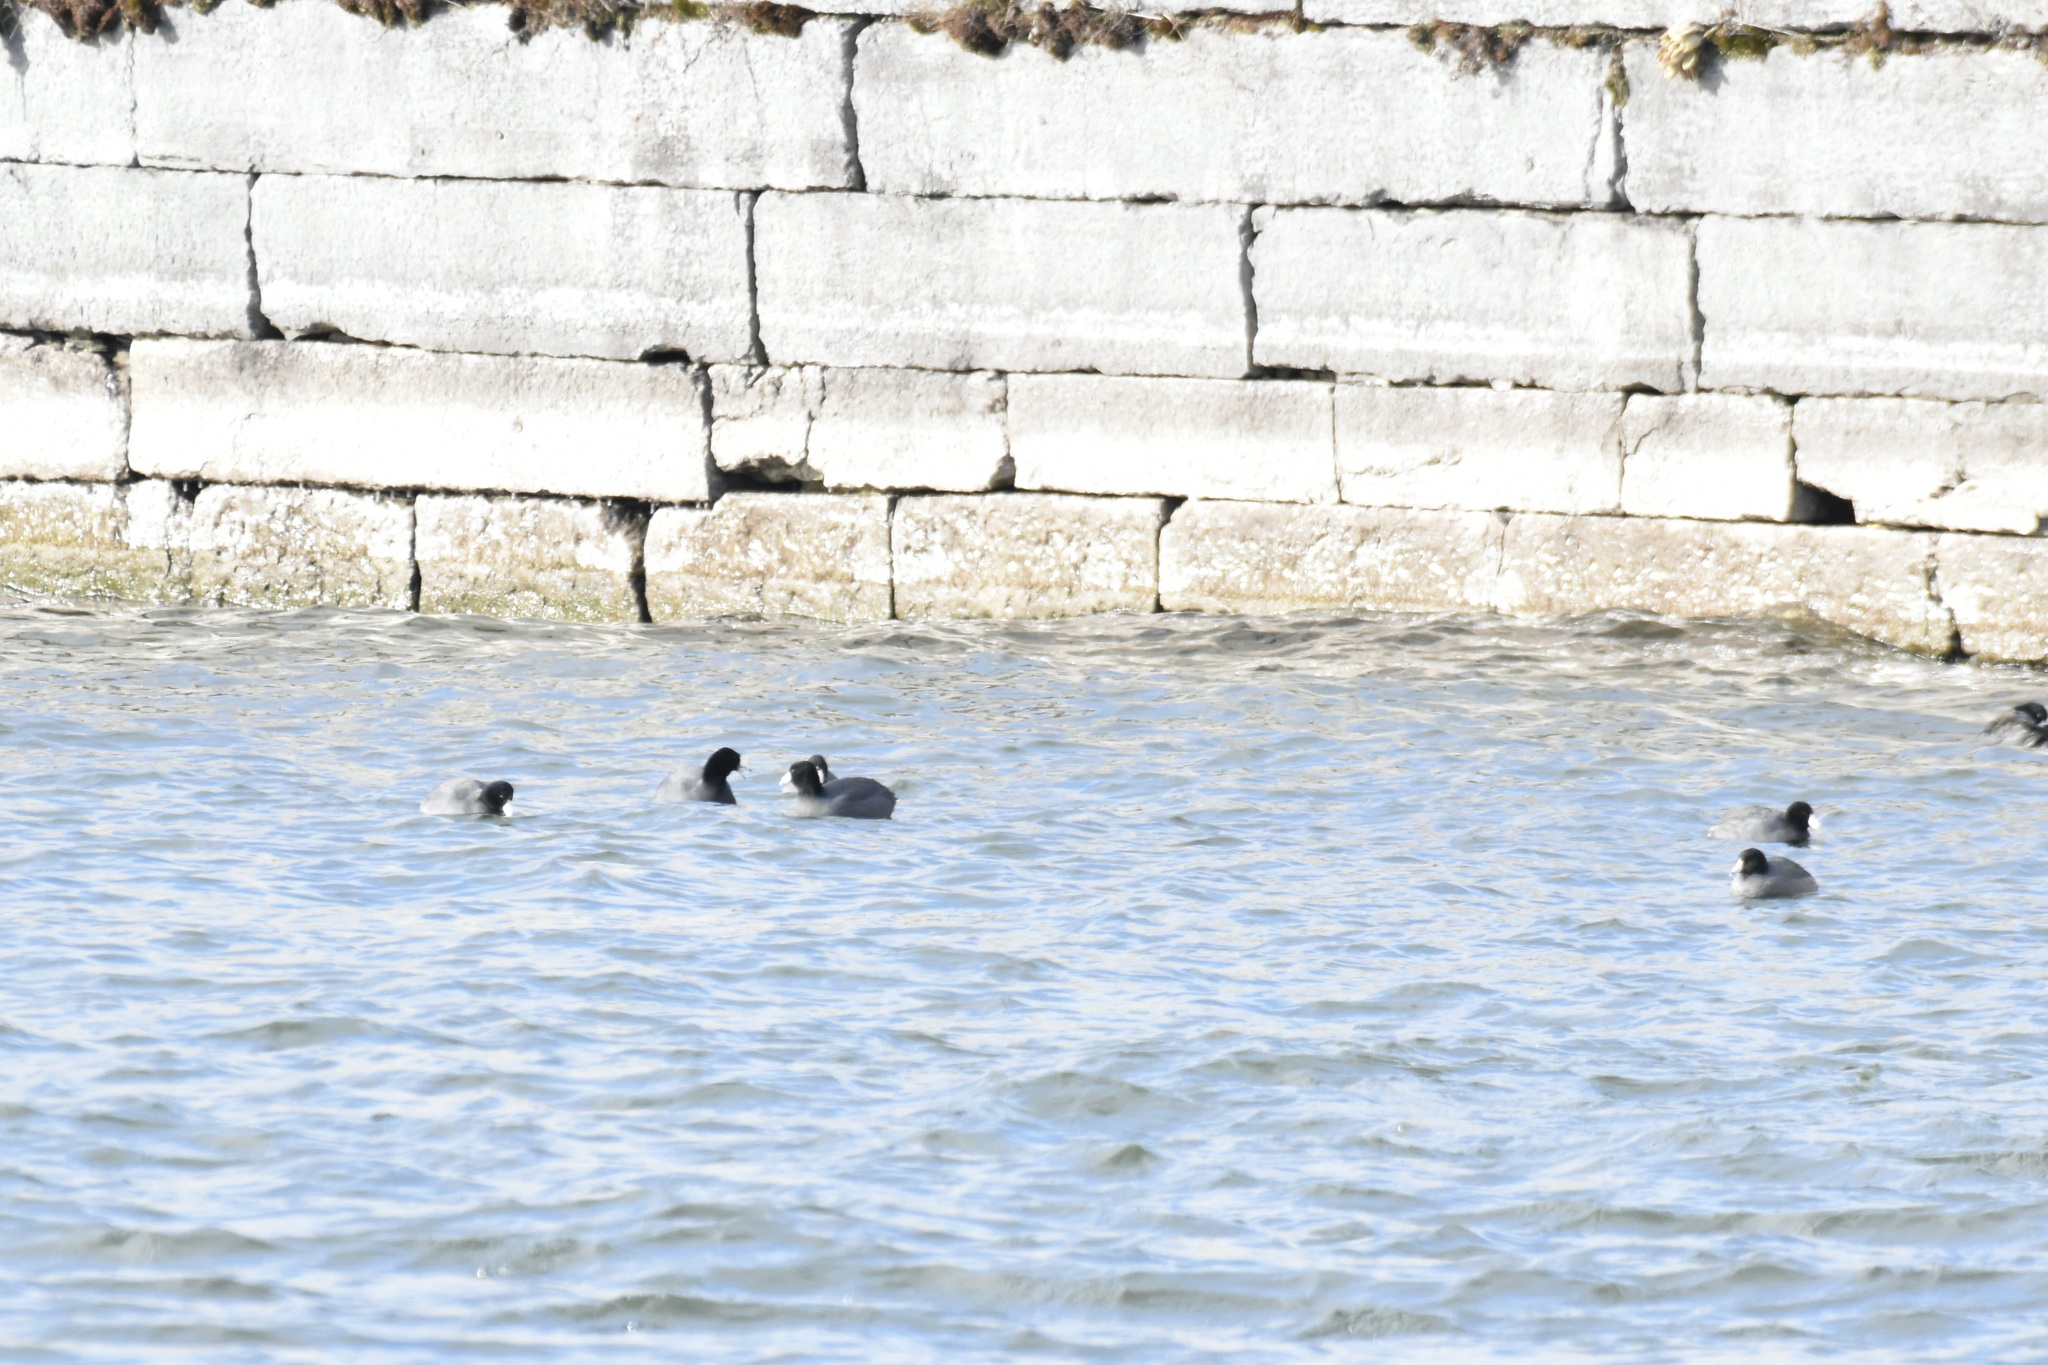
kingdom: Animalia
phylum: Chordata
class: Aves
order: Gruiformes
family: Rallidae
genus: Fulica
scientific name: Fulica americana
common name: American coot
